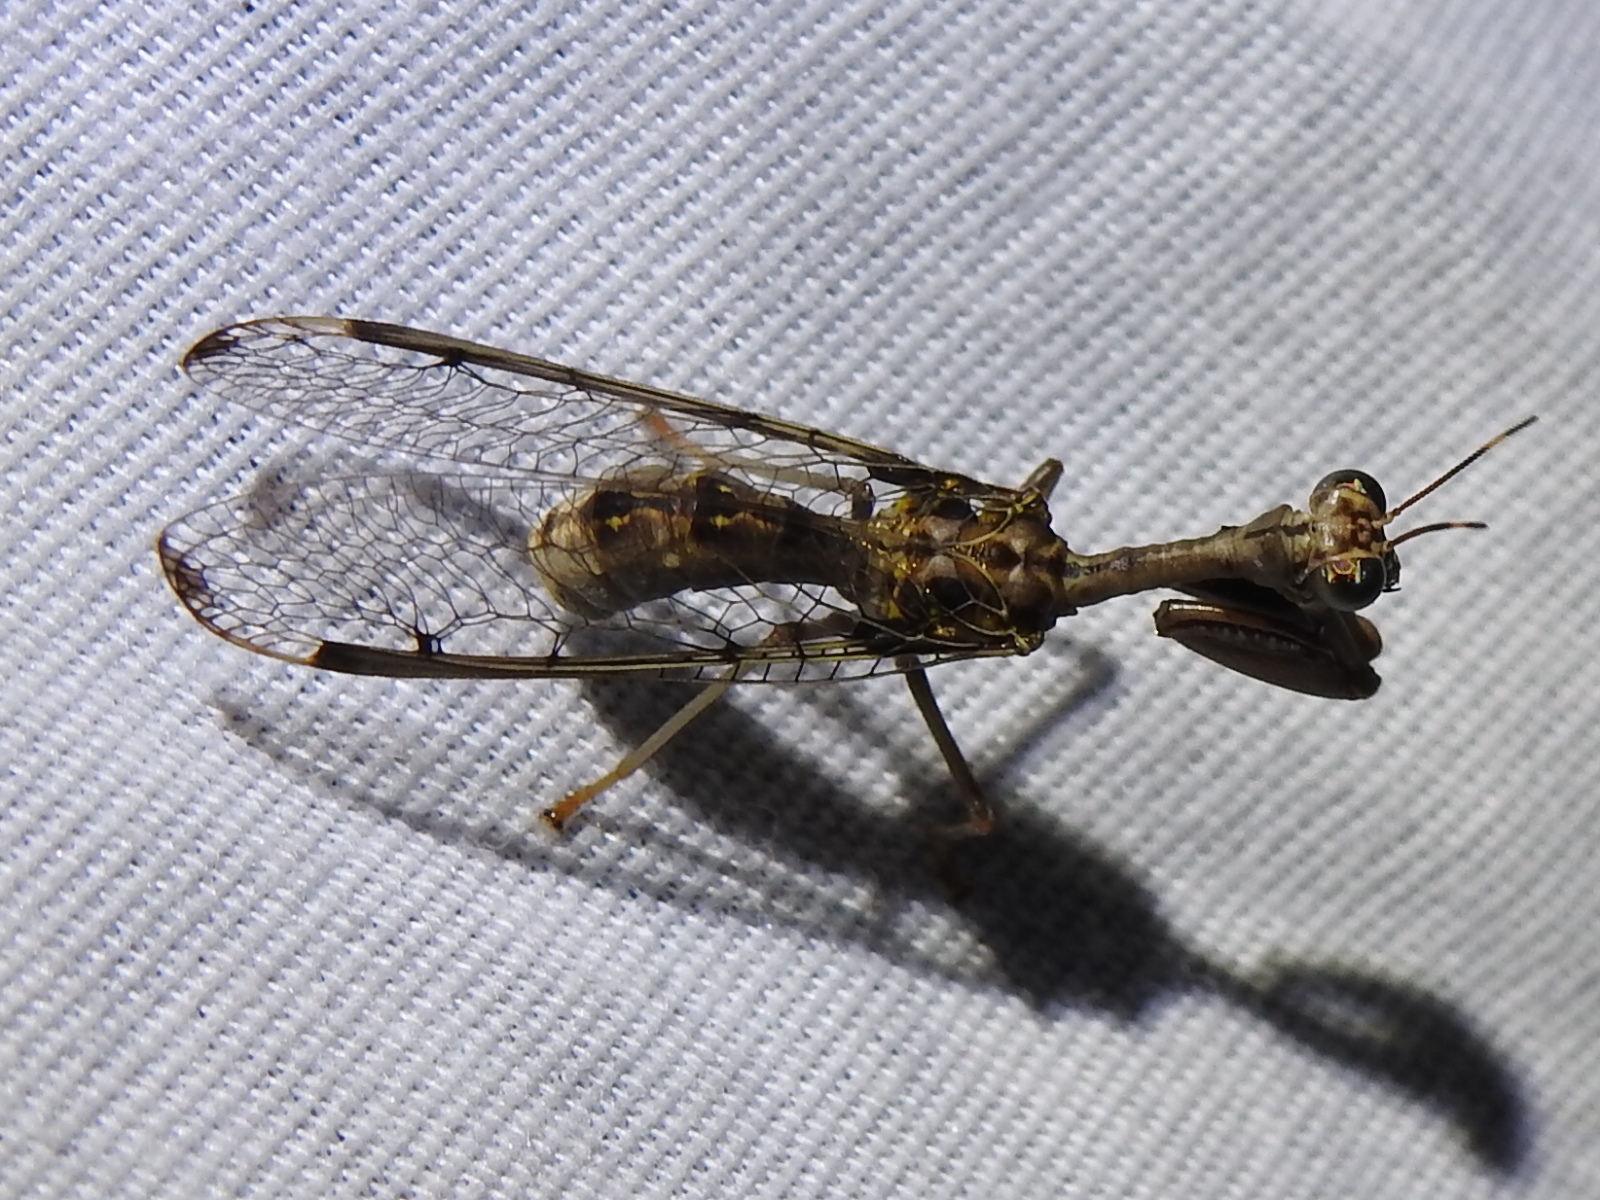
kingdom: Animalia
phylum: Arthropoda
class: Insecta
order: Neuroptera
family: Mantispidae
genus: Dicromantispa
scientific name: Dicromantispa interrupta
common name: Four-spotted mantidfly
